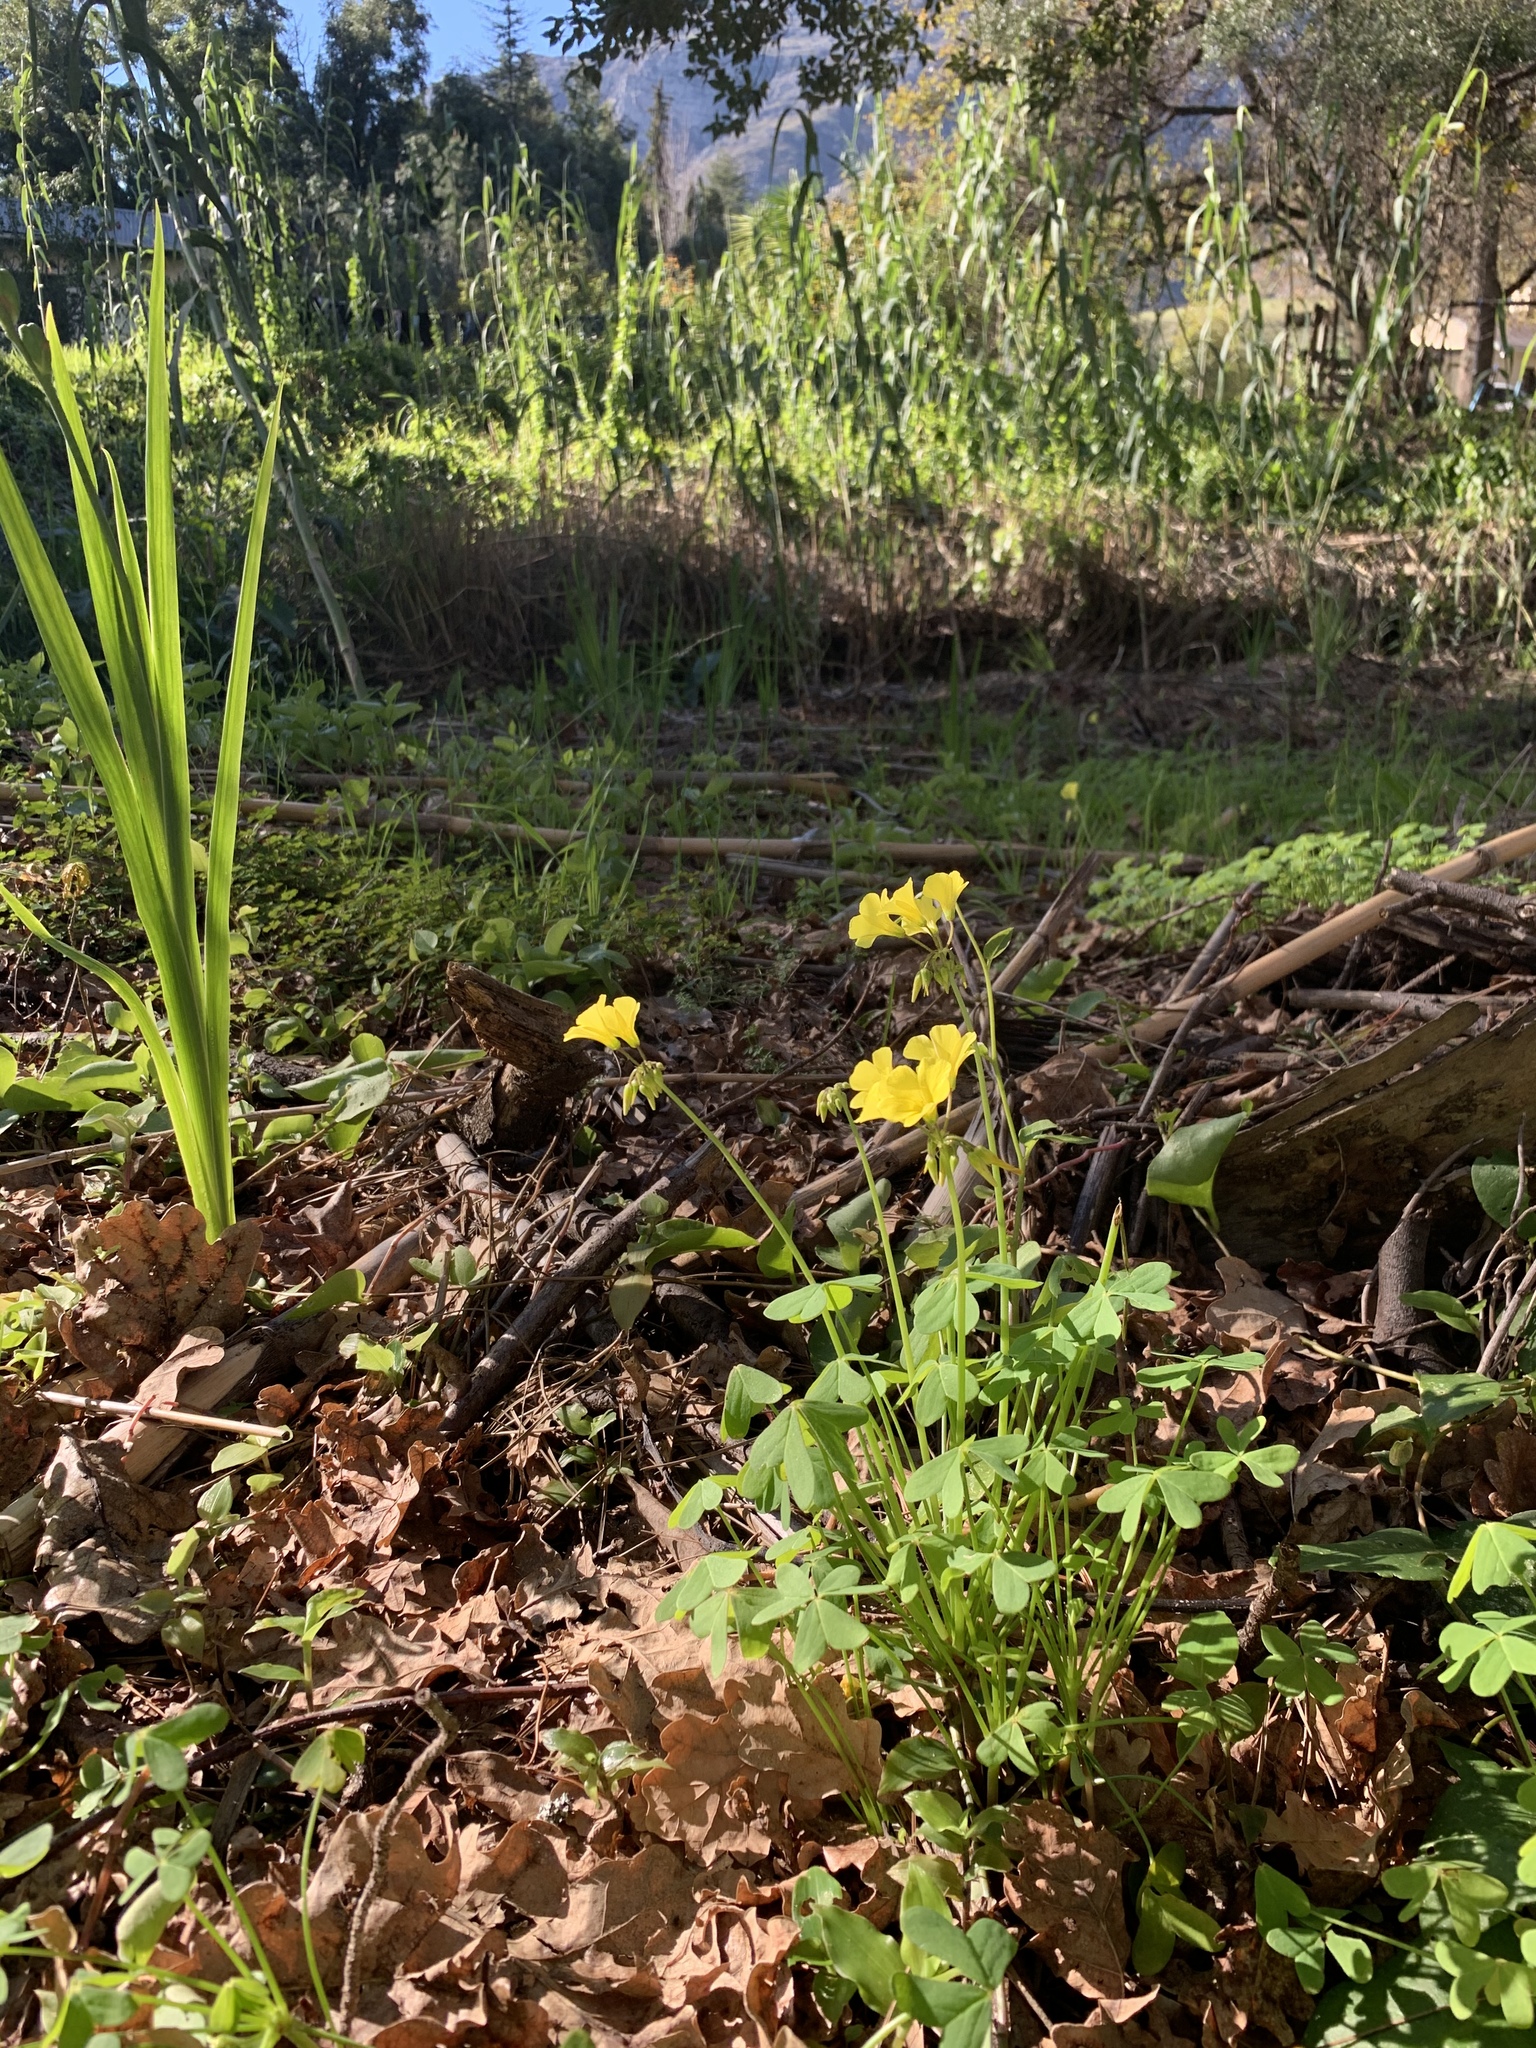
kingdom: Plantae
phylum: Tracheophyta
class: Magnoliopsida
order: Oxalidales
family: Oxalidaceae
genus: Oxalis
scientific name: Oxalis pes-caprae
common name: Bermuda-buttercup
